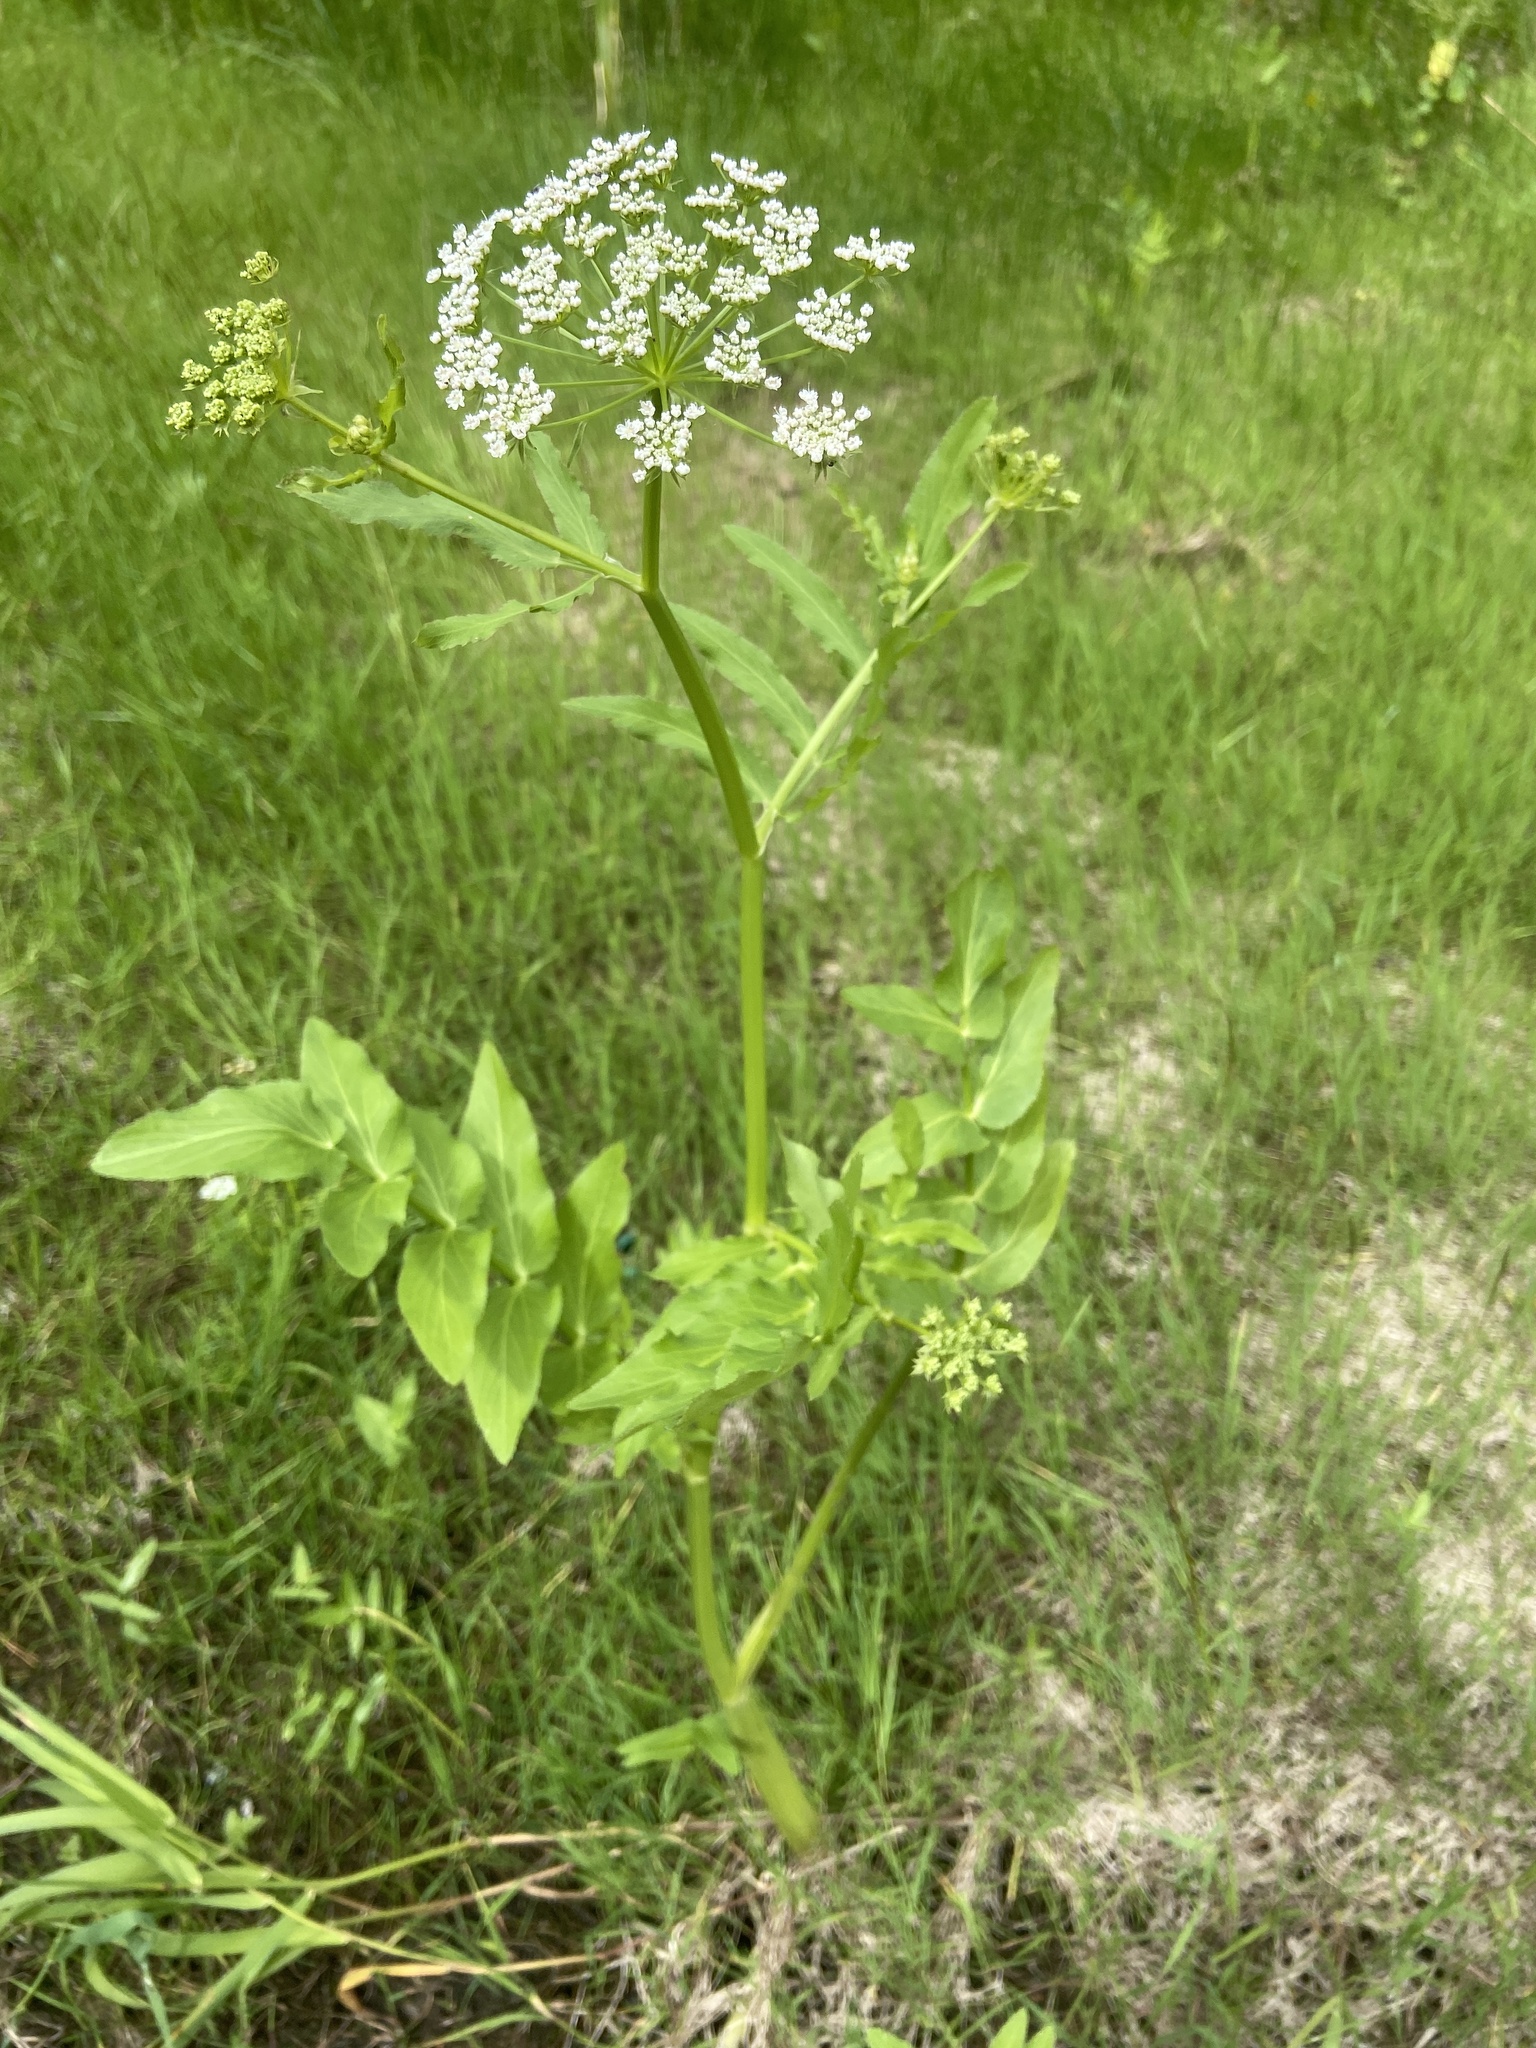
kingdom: Plantae
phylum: Tracheophyta
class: Magnoliopsida
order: Apiales
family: Apiaceae
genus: Sium
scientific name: Sium latifolium
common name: Greater water-parsnip
